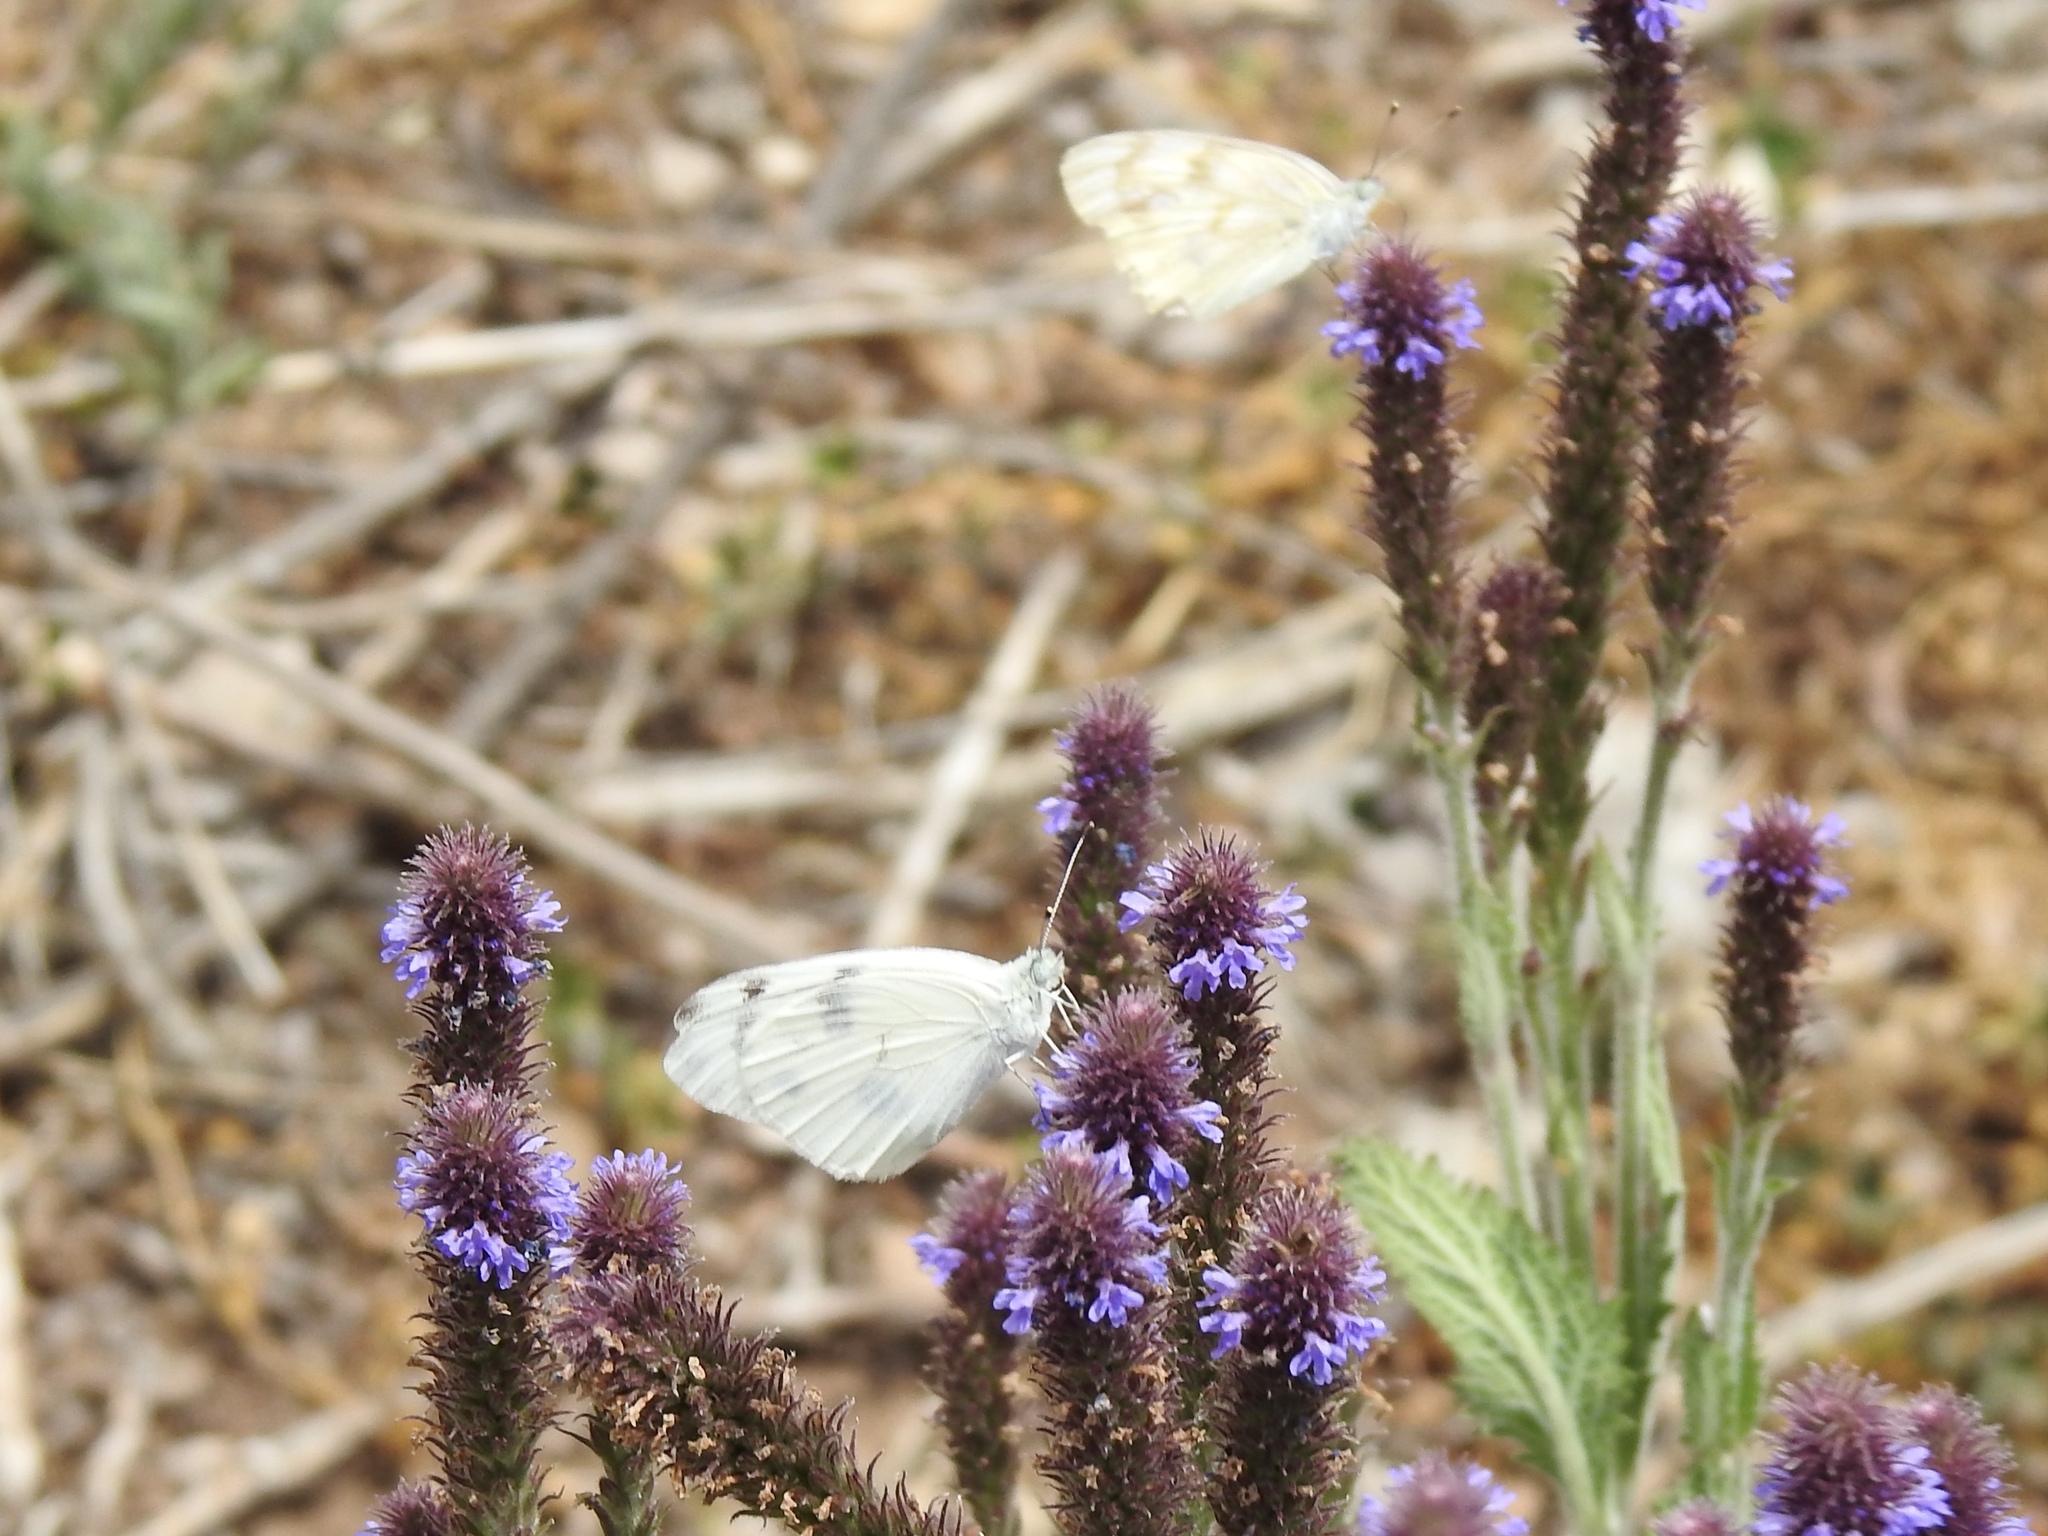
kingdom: Animalia
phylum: Arthropoda
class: Insecta
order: Lepidoptera
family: Pieridae
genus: Pontia
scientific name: Pontia protodice
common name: Checkered white
